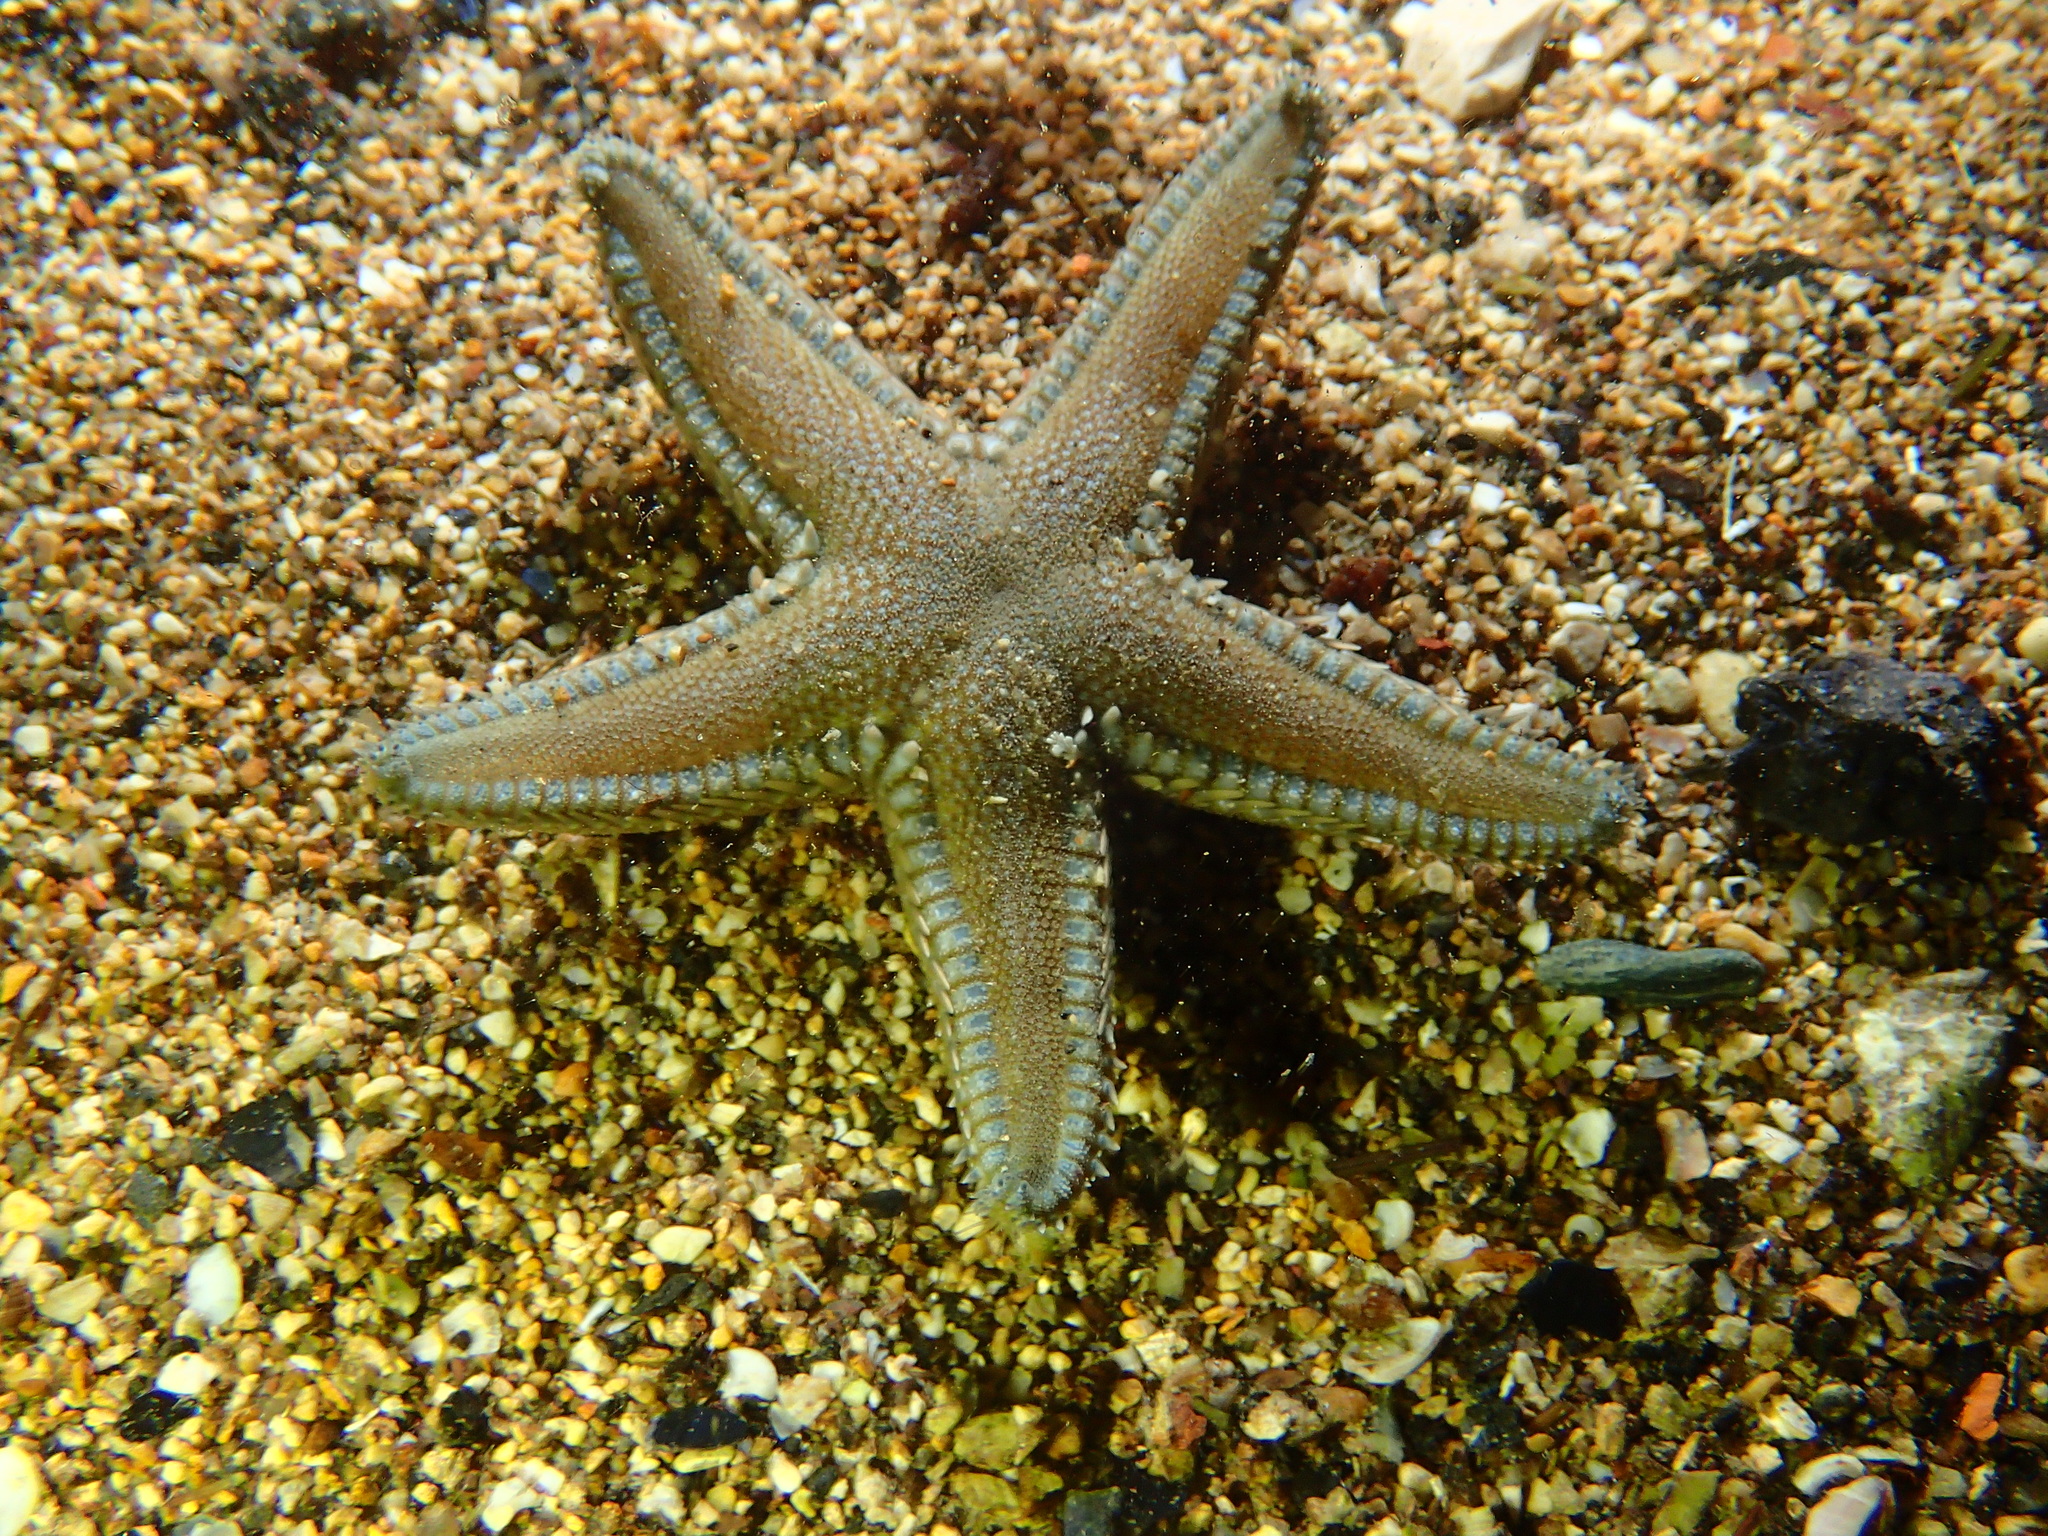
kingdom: Animalia
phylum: Echinodermata
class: Asteroidea
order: Paxillosida
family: Astropectinidae
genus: Astropecten
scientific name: Astropecten platyacanthus
